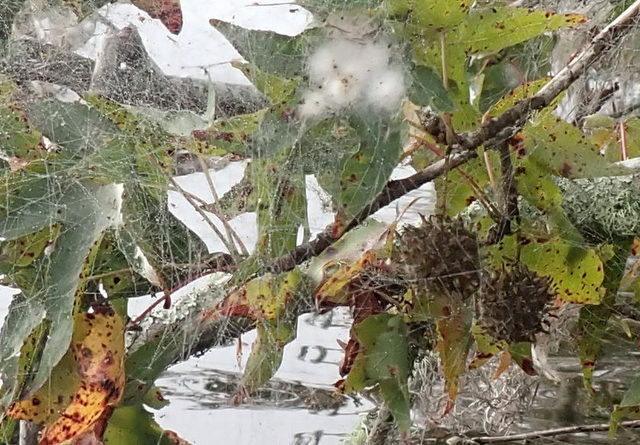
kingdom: Plantae
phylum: Tracheophyta
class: Magnoliopsida
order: Saxifragales
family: Altingiaceae
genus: Liquidambar
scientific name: Liquidambar styraciflua
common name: Sweet gum
